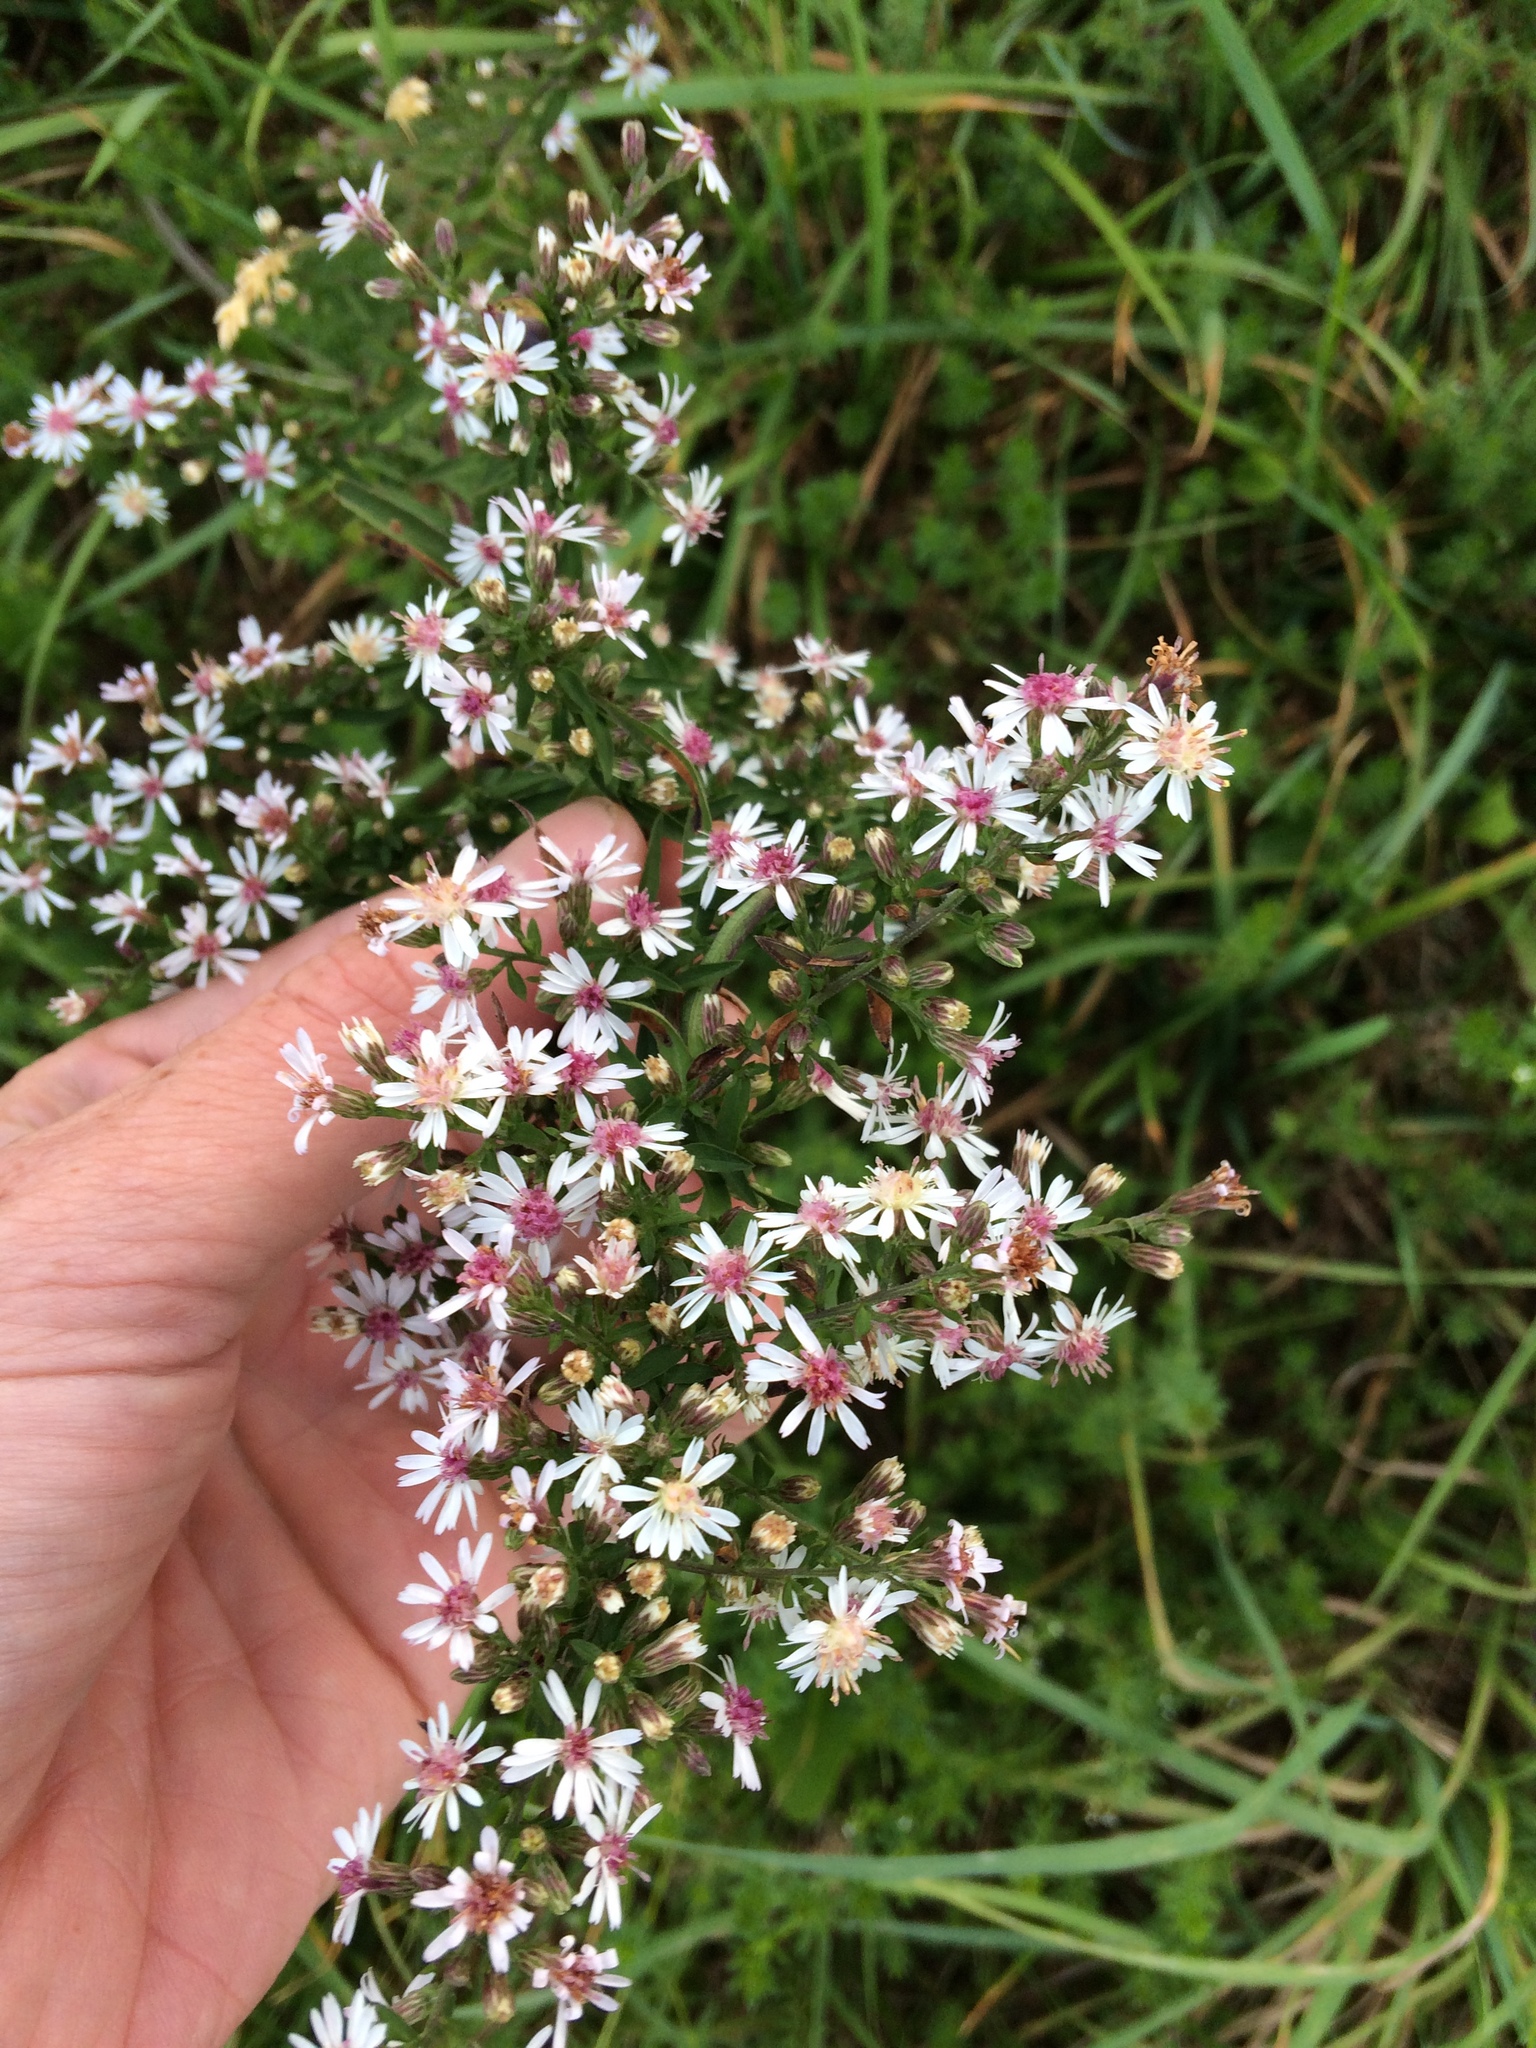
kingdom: Plantae
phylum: Tracheophyta
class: Magnoliopsida
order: Asterales
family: Asteraceae
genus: Symphyotrichum
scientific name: Symphyotrichum lateriflorum
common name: Calico aster
